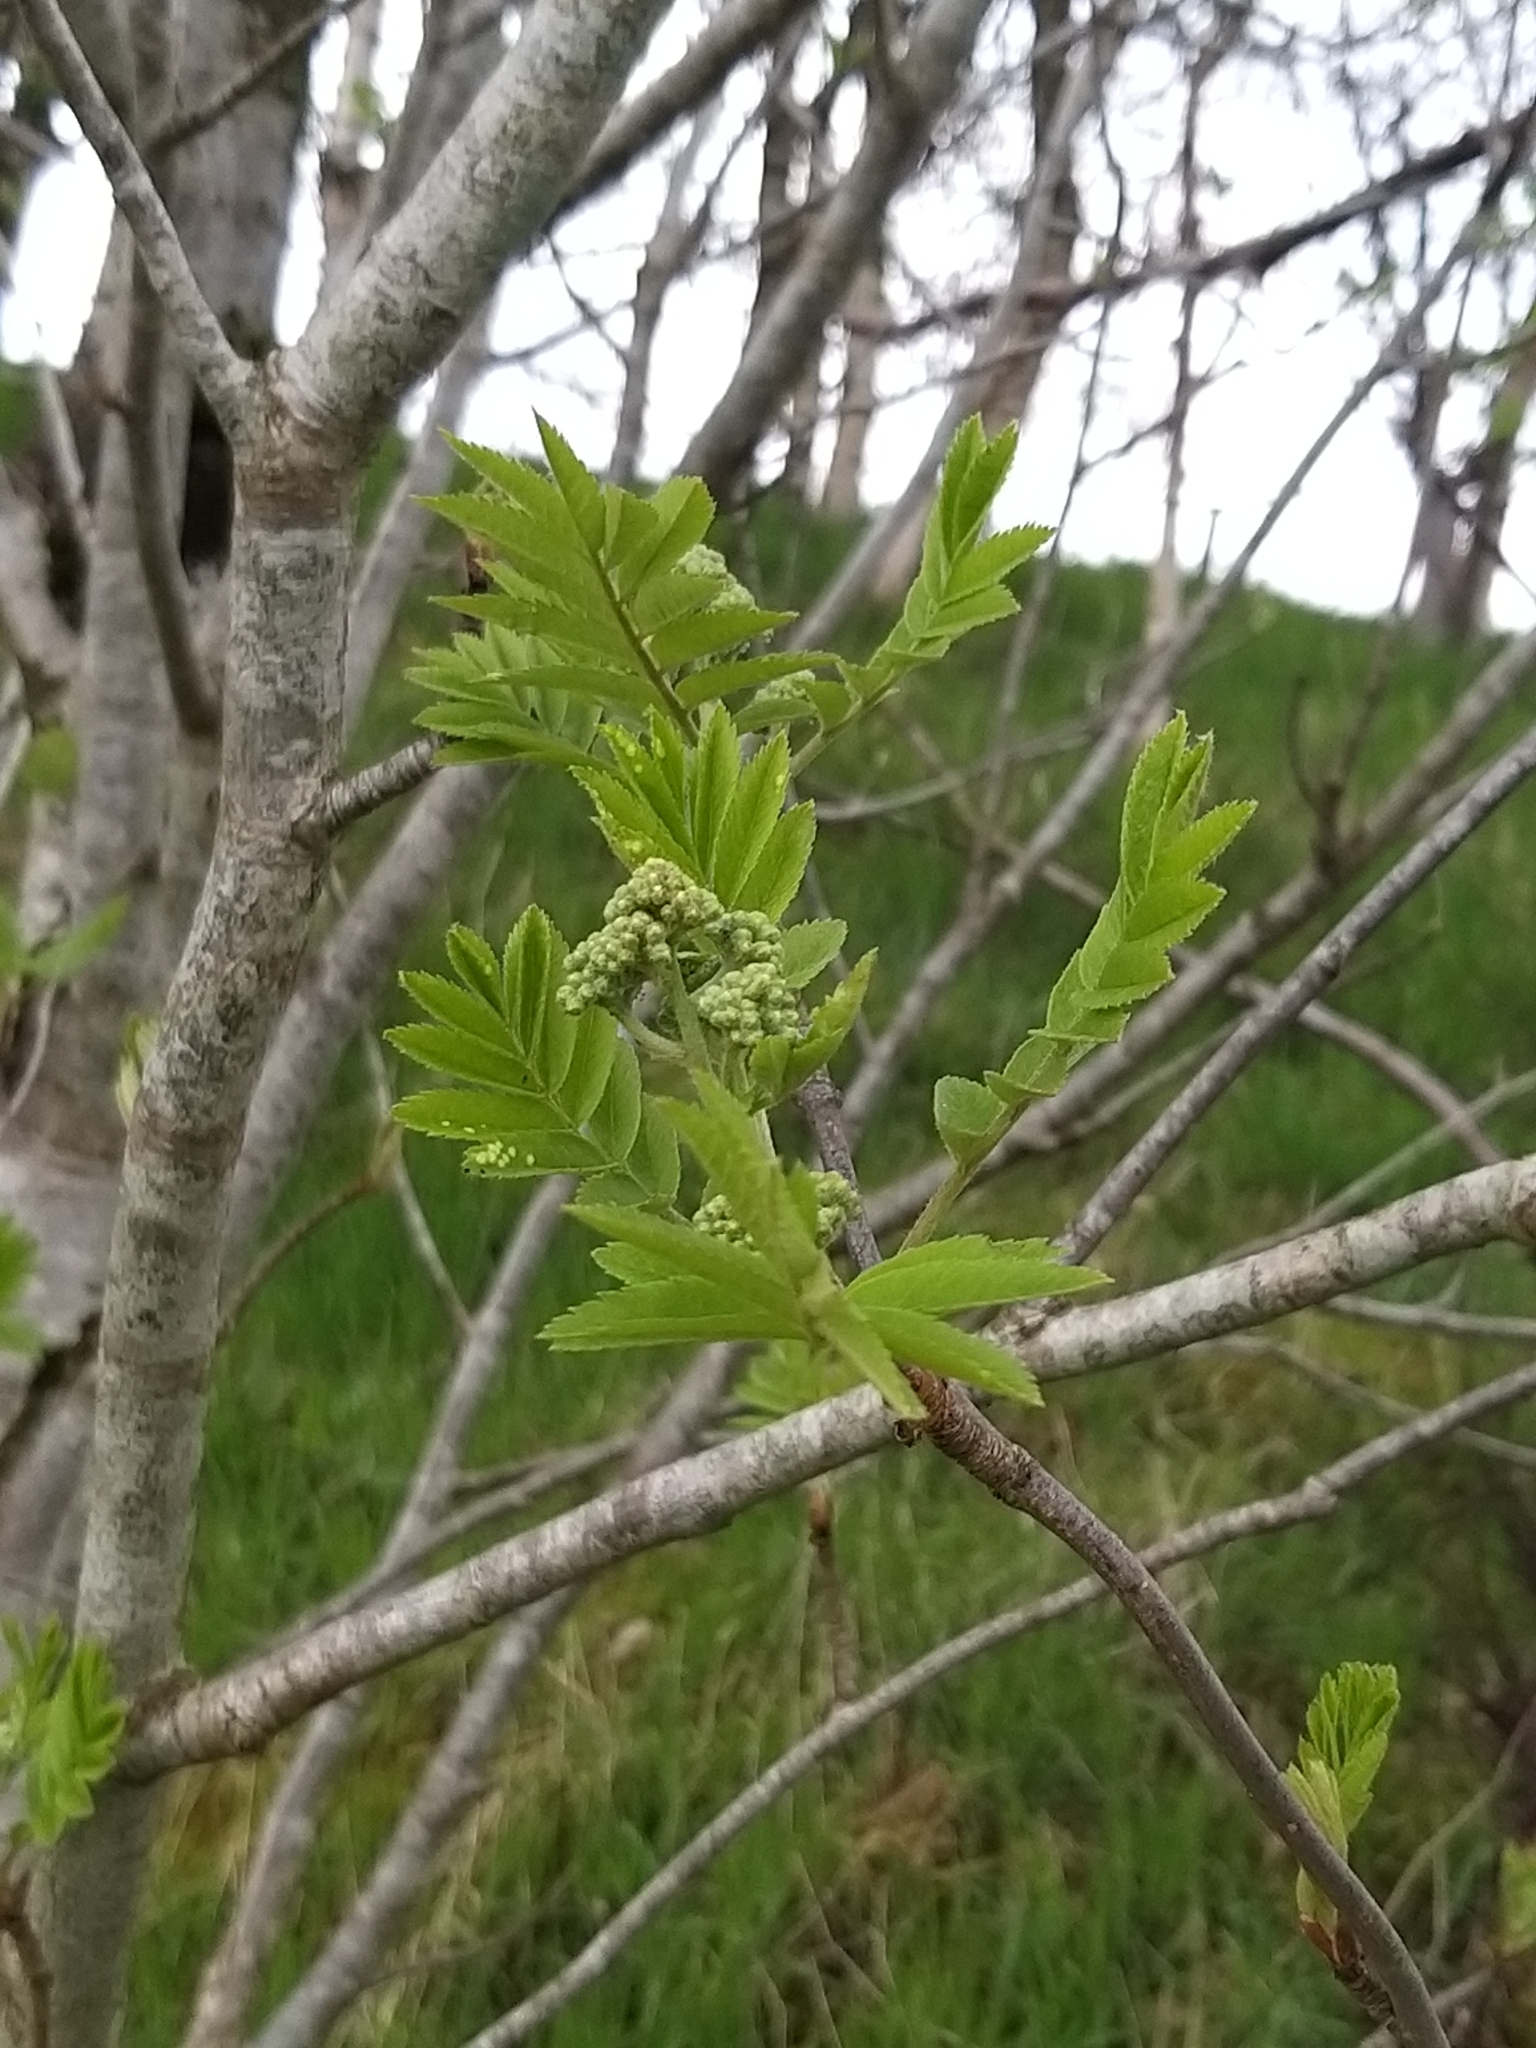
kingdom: Plantae
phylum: Tracheophyta
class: Magnoliopsida
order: Rosales
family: Rosaceae
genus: Sorbus
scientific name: Sorbus aucuparia
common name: Rowan
